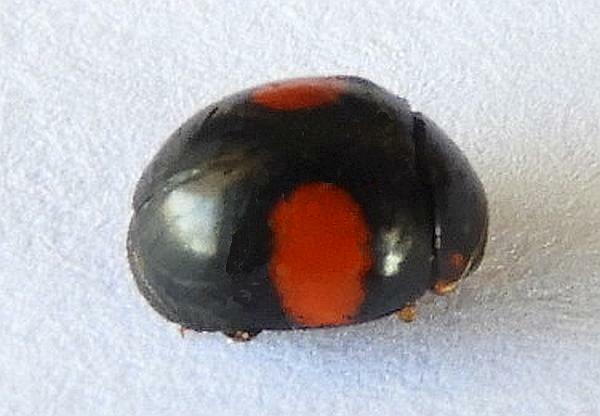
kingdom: Animalia
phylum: Arthropoda
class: Insecta
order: Coleoptera
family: Coccinellidae
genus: Brachiacantha
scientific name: Brachiacantha subfasciata
